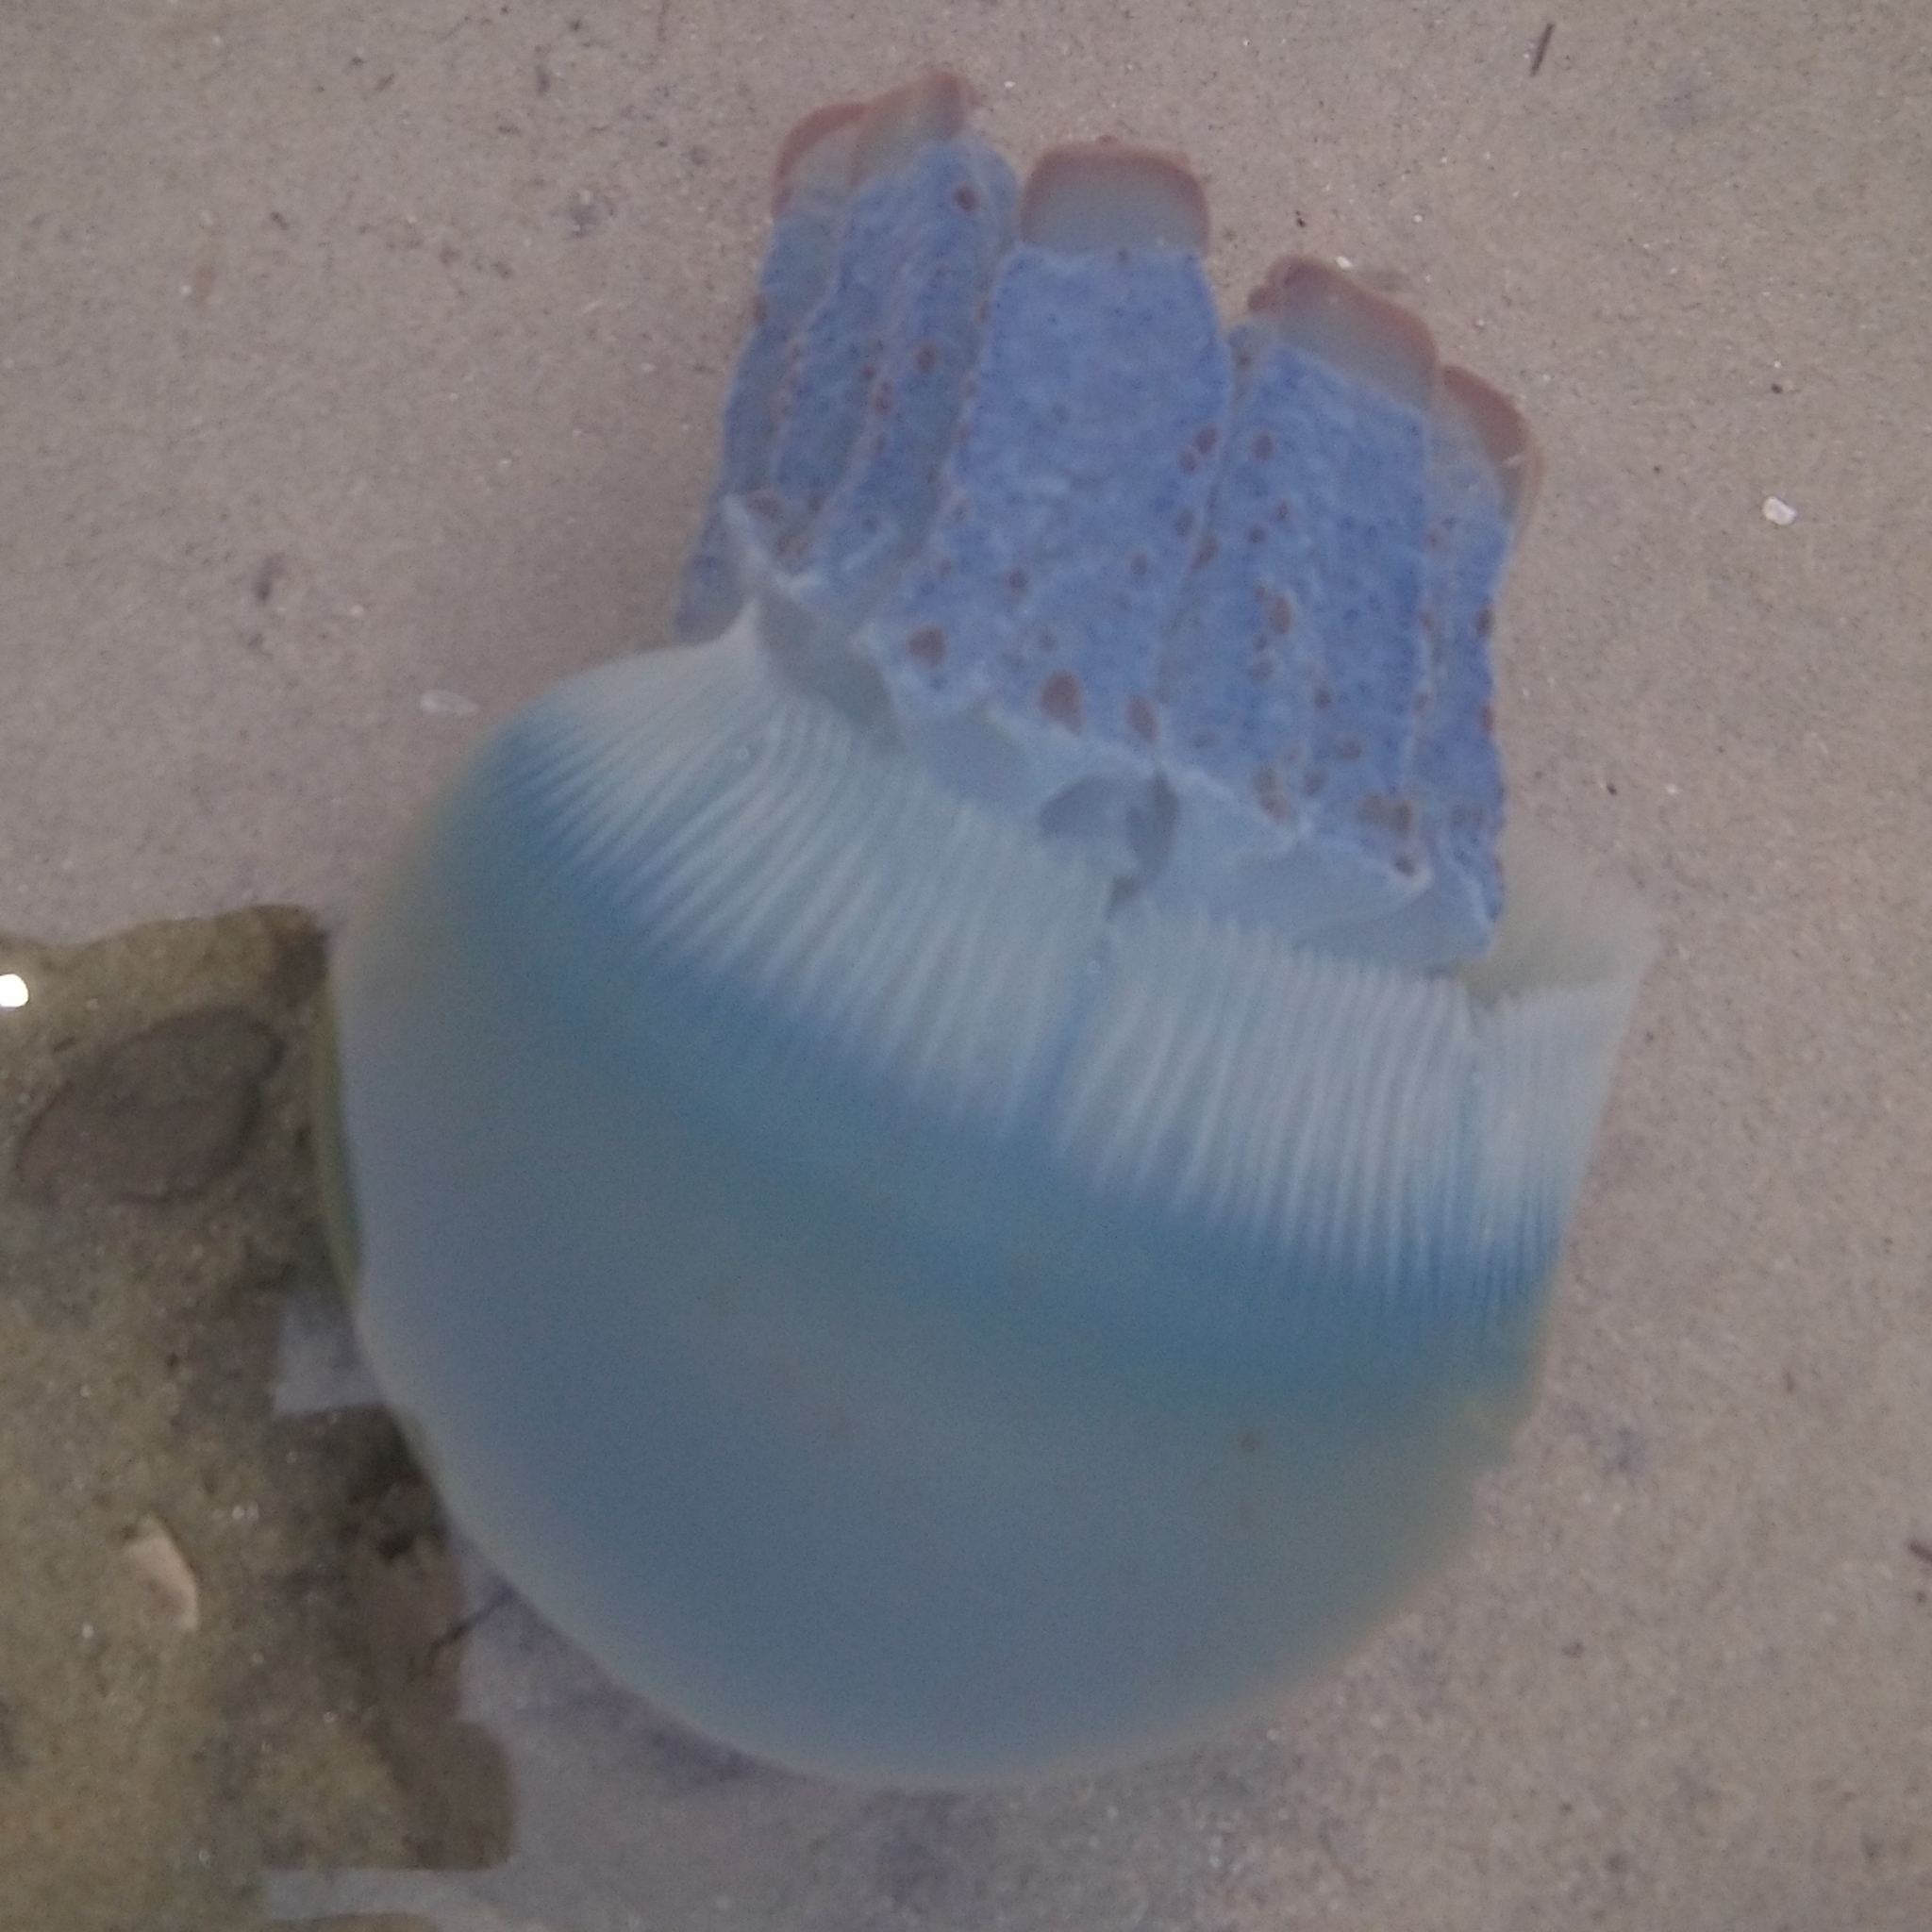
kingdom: Animalia
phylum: Cnidaria
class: Scyphozoa
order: Rhizostomeae
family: Catostylidae
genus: Crambionella
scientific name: Crambionella stuhlmanni
